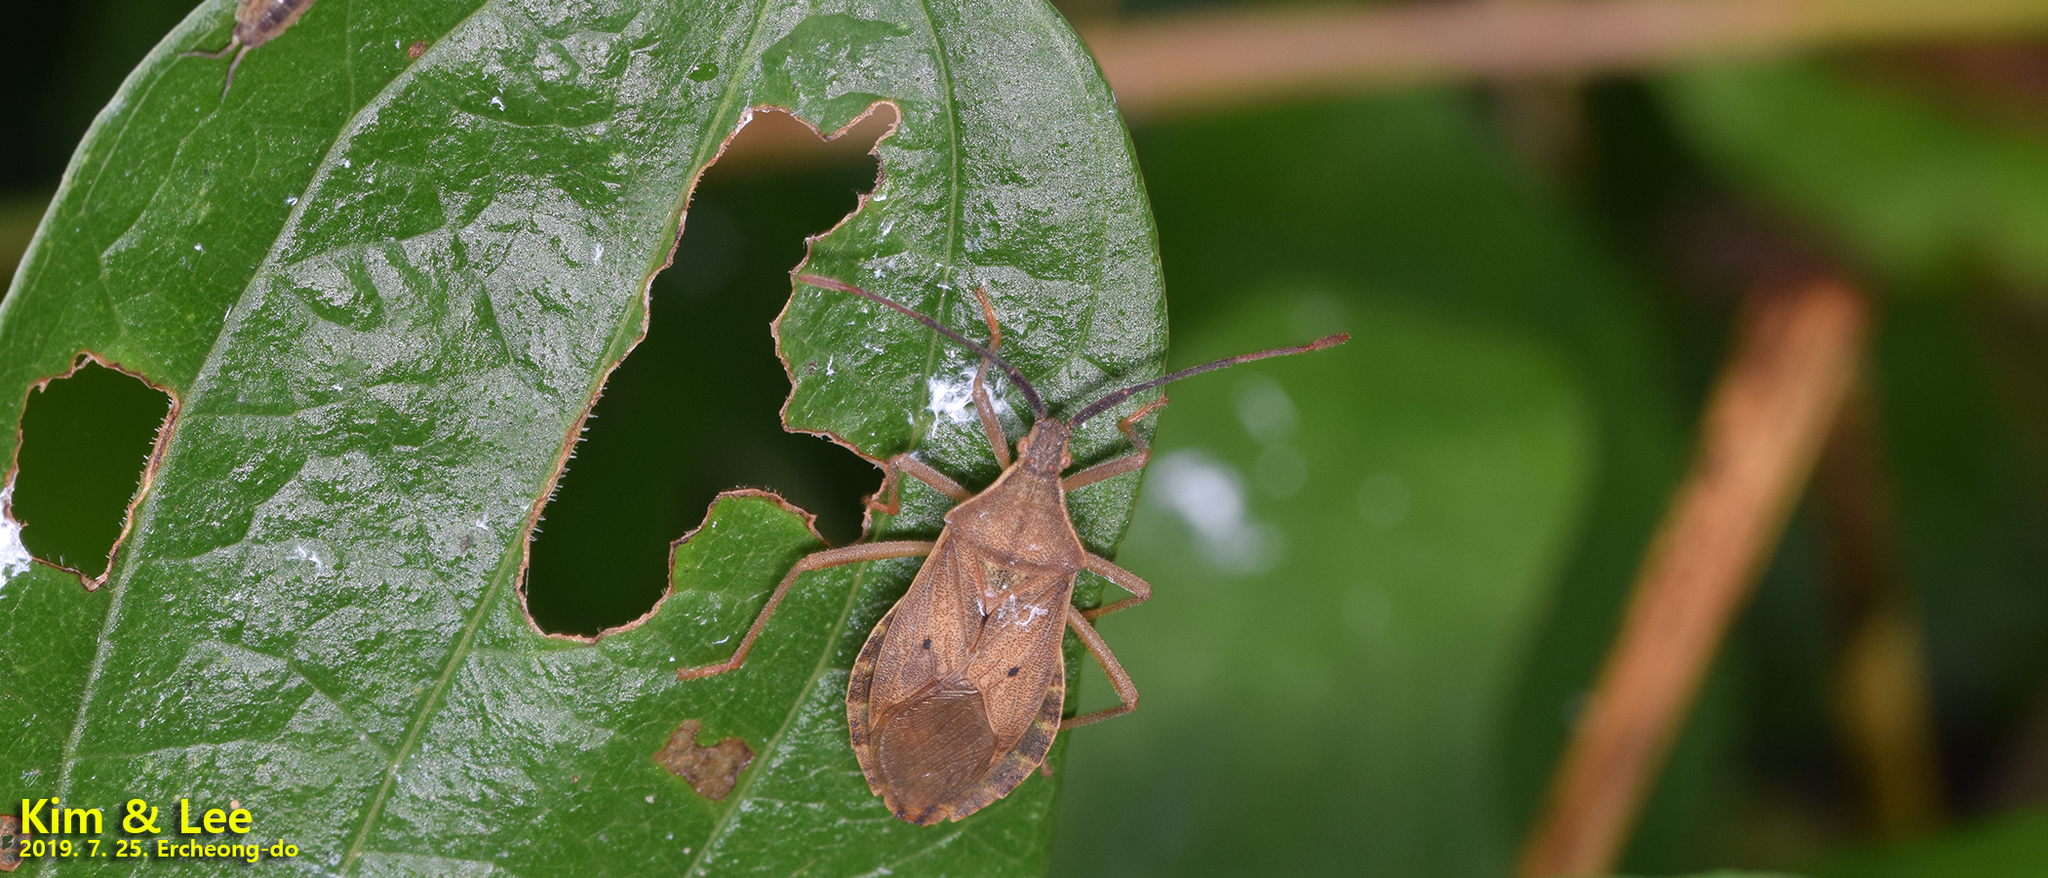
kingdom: Animalia
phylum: Arthropoda
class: Insecta
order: Hemiptera
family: Coreidae
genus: Homoeocerus
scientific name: Homoeocerus unipunctatus
